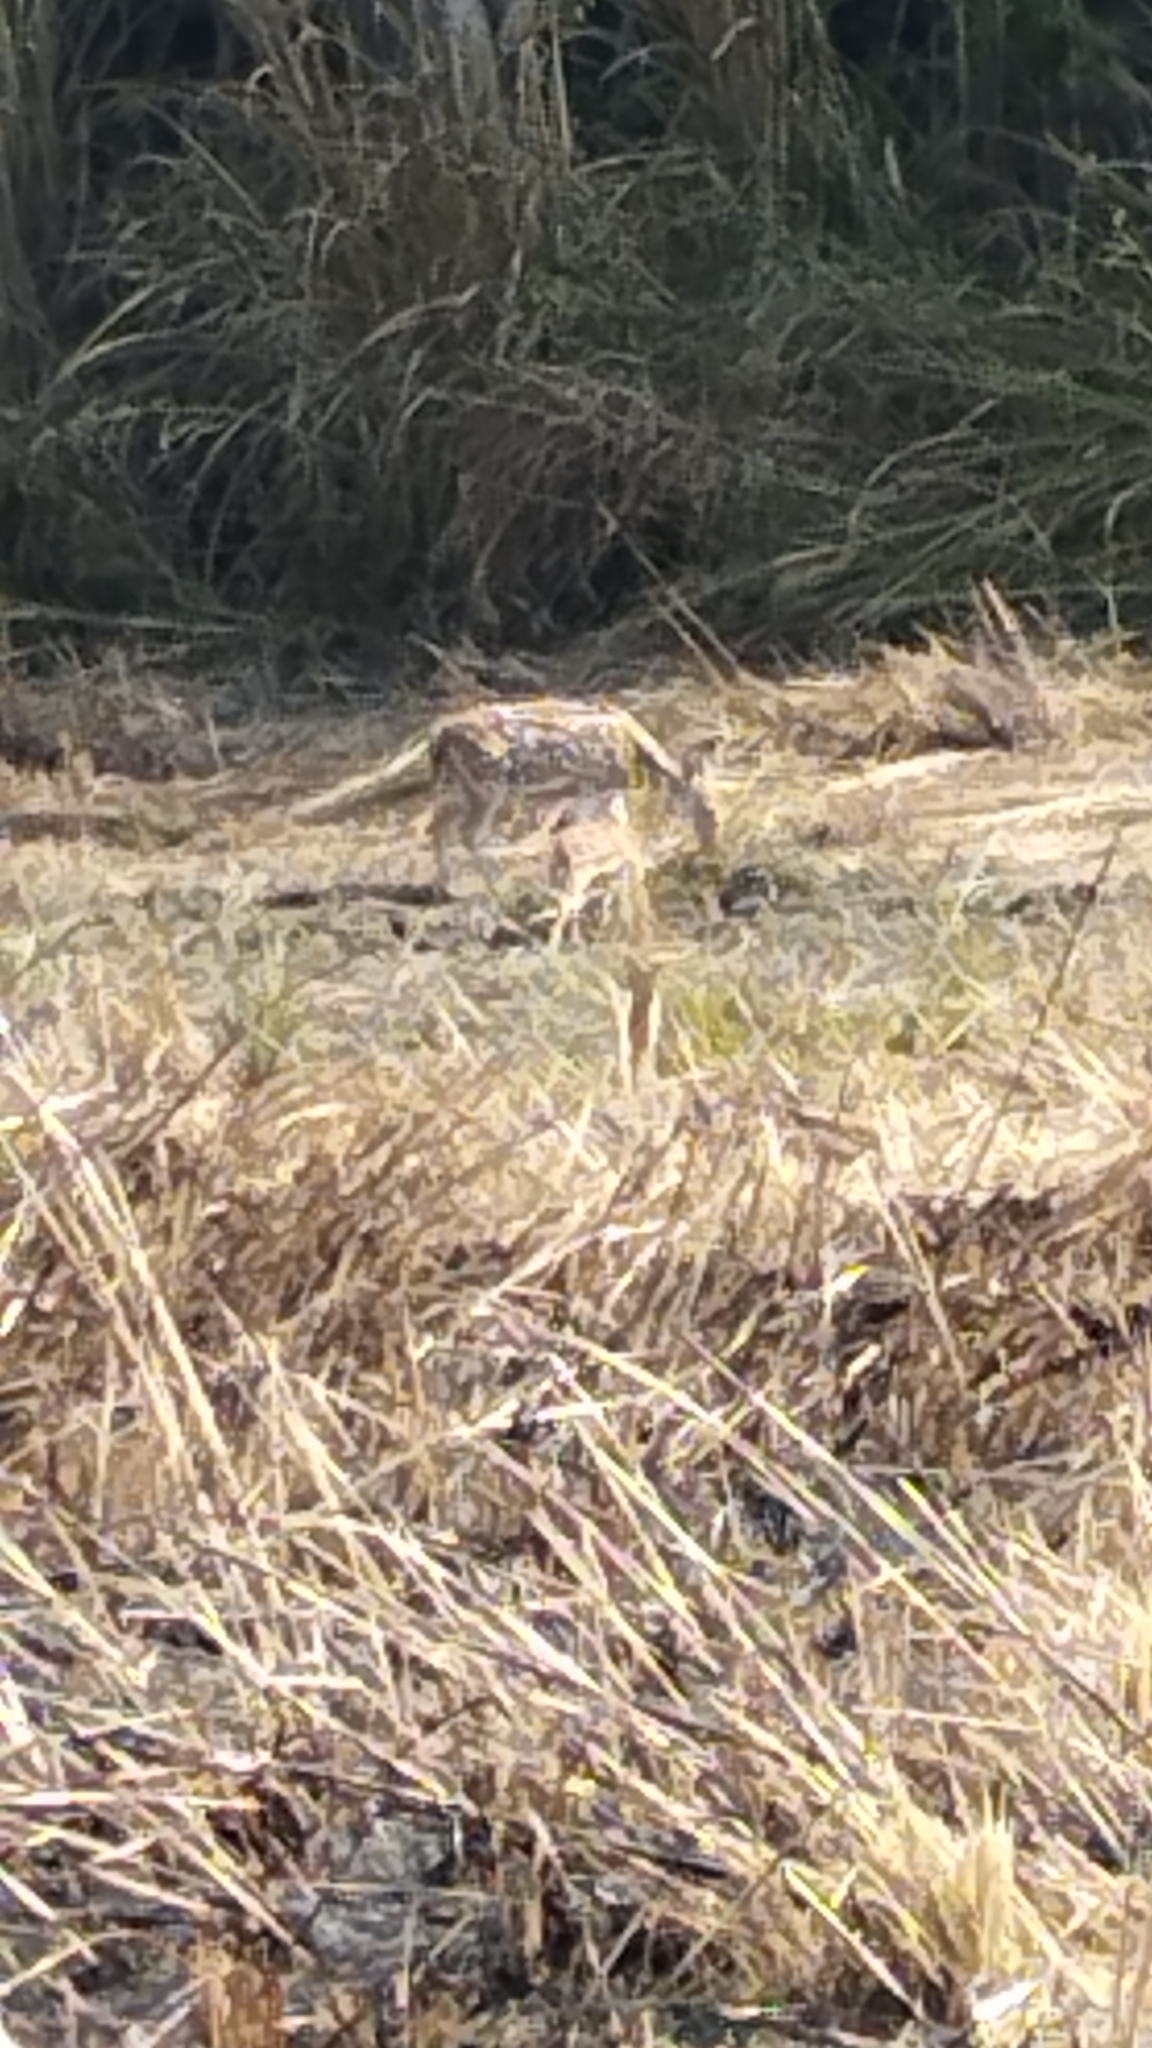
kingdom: Animalia
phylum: Chordata
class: Mammalia
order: Artiodactyla
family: Cervidae
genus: Axis
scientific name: Axis axis
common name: Chital
